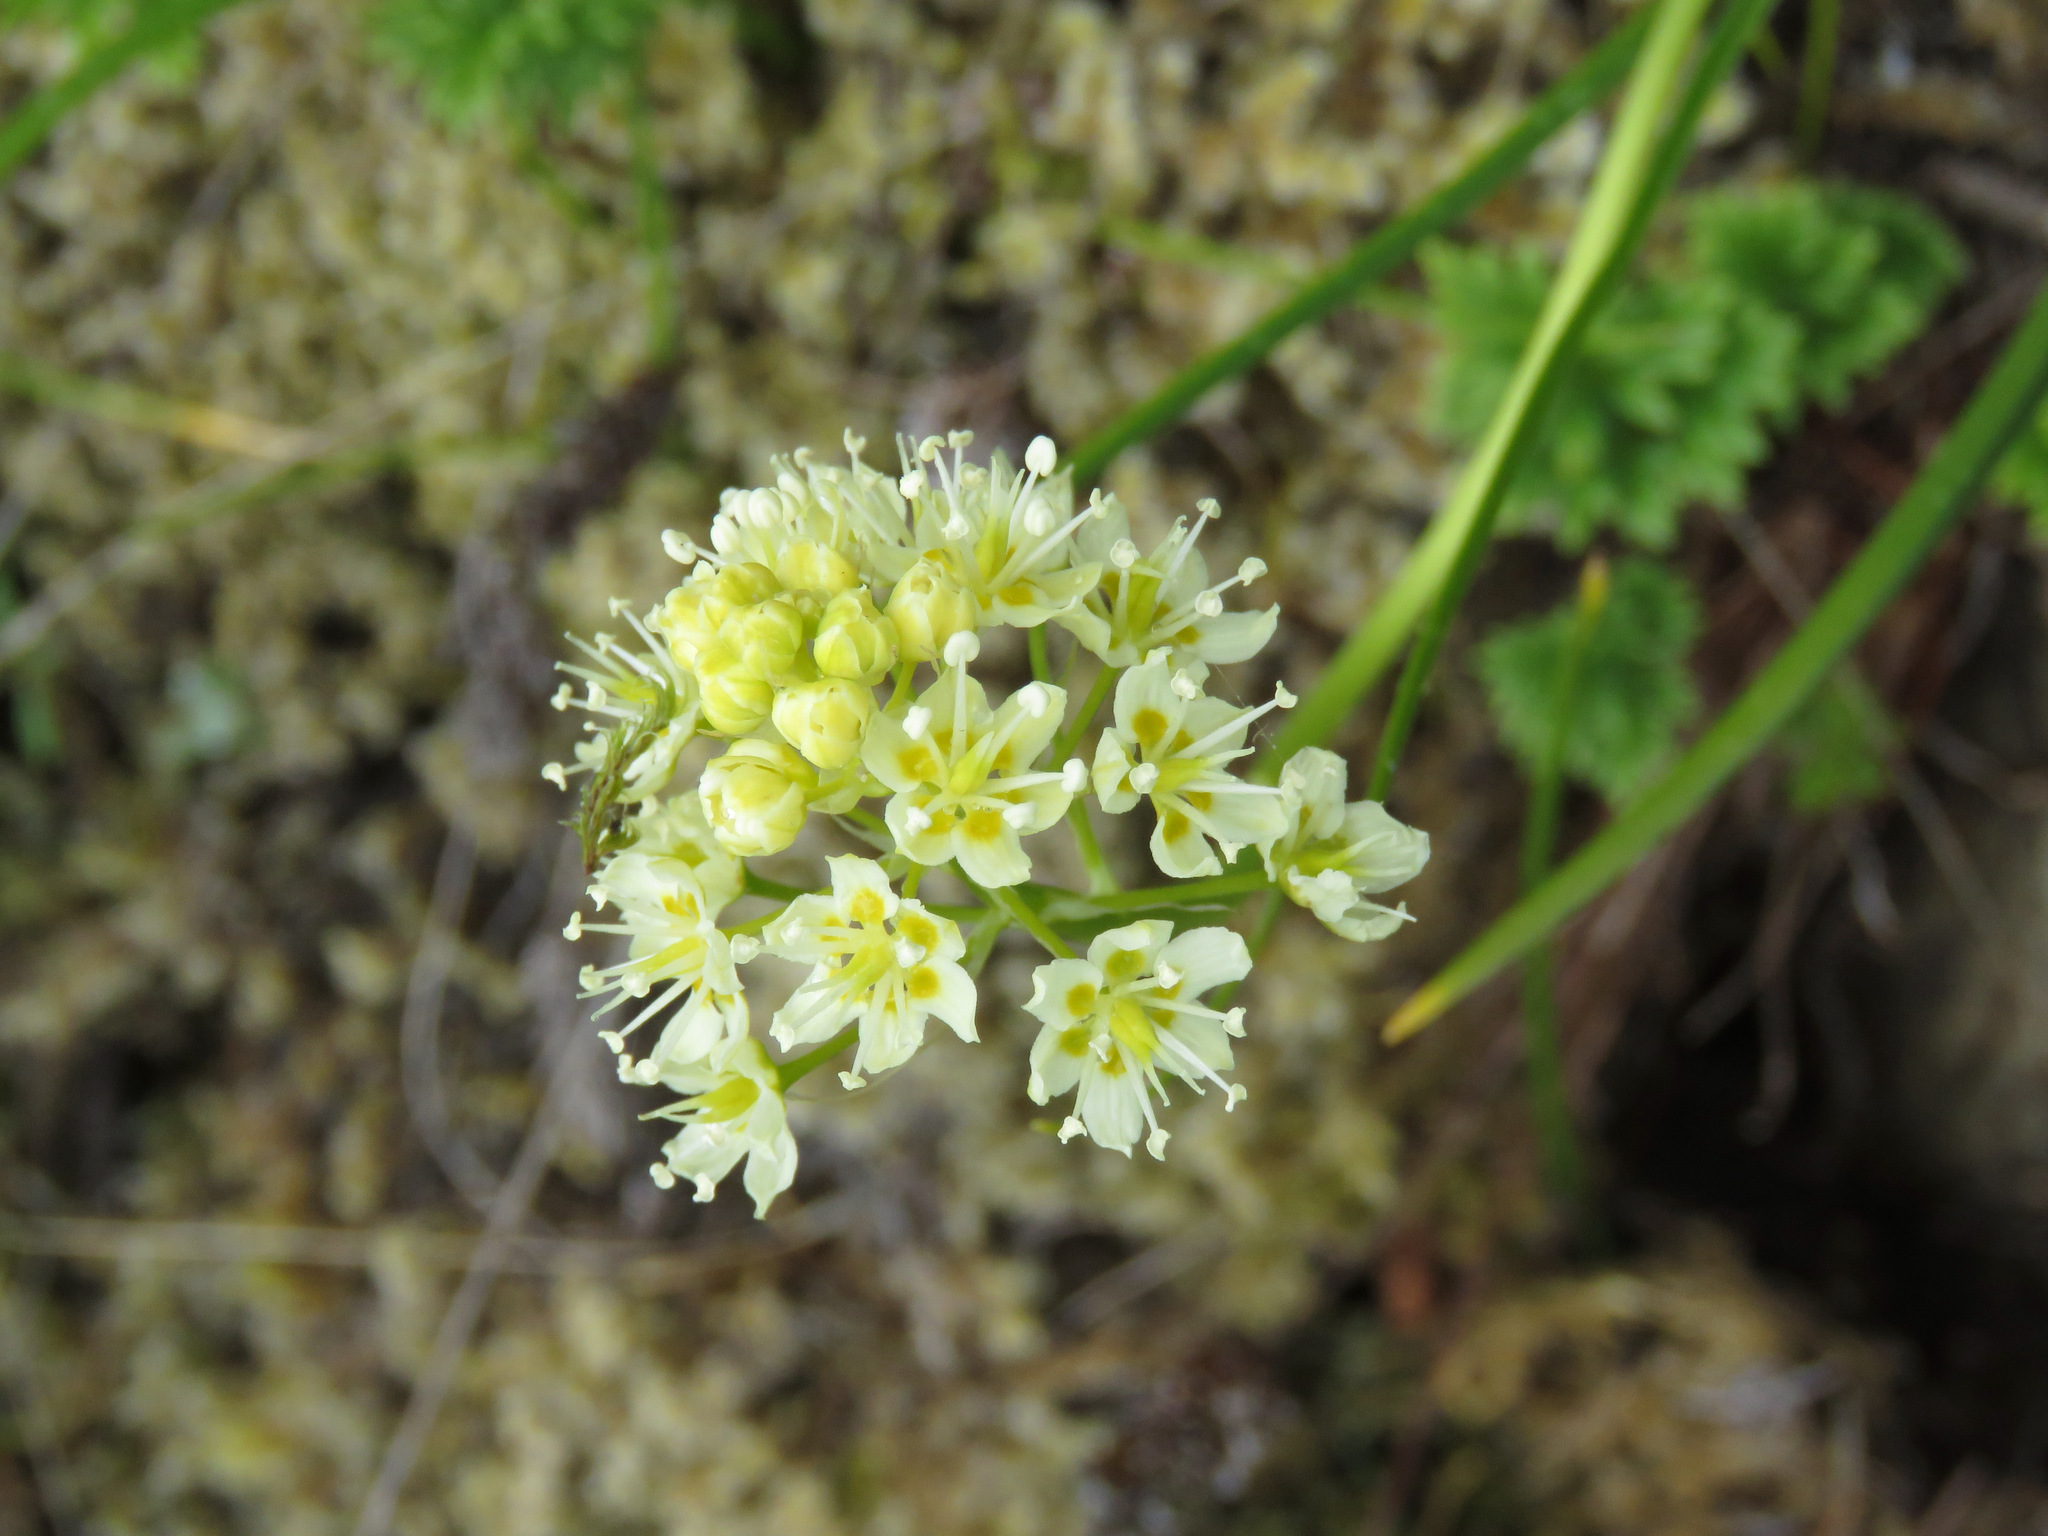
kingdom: Plantae
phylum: Tracheophyta
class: Liliopsida
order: Liliales
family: Melanthiaceae
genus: Toxicoscordion
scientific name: Toxicoscordion venenosum
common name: Meadow death camas
